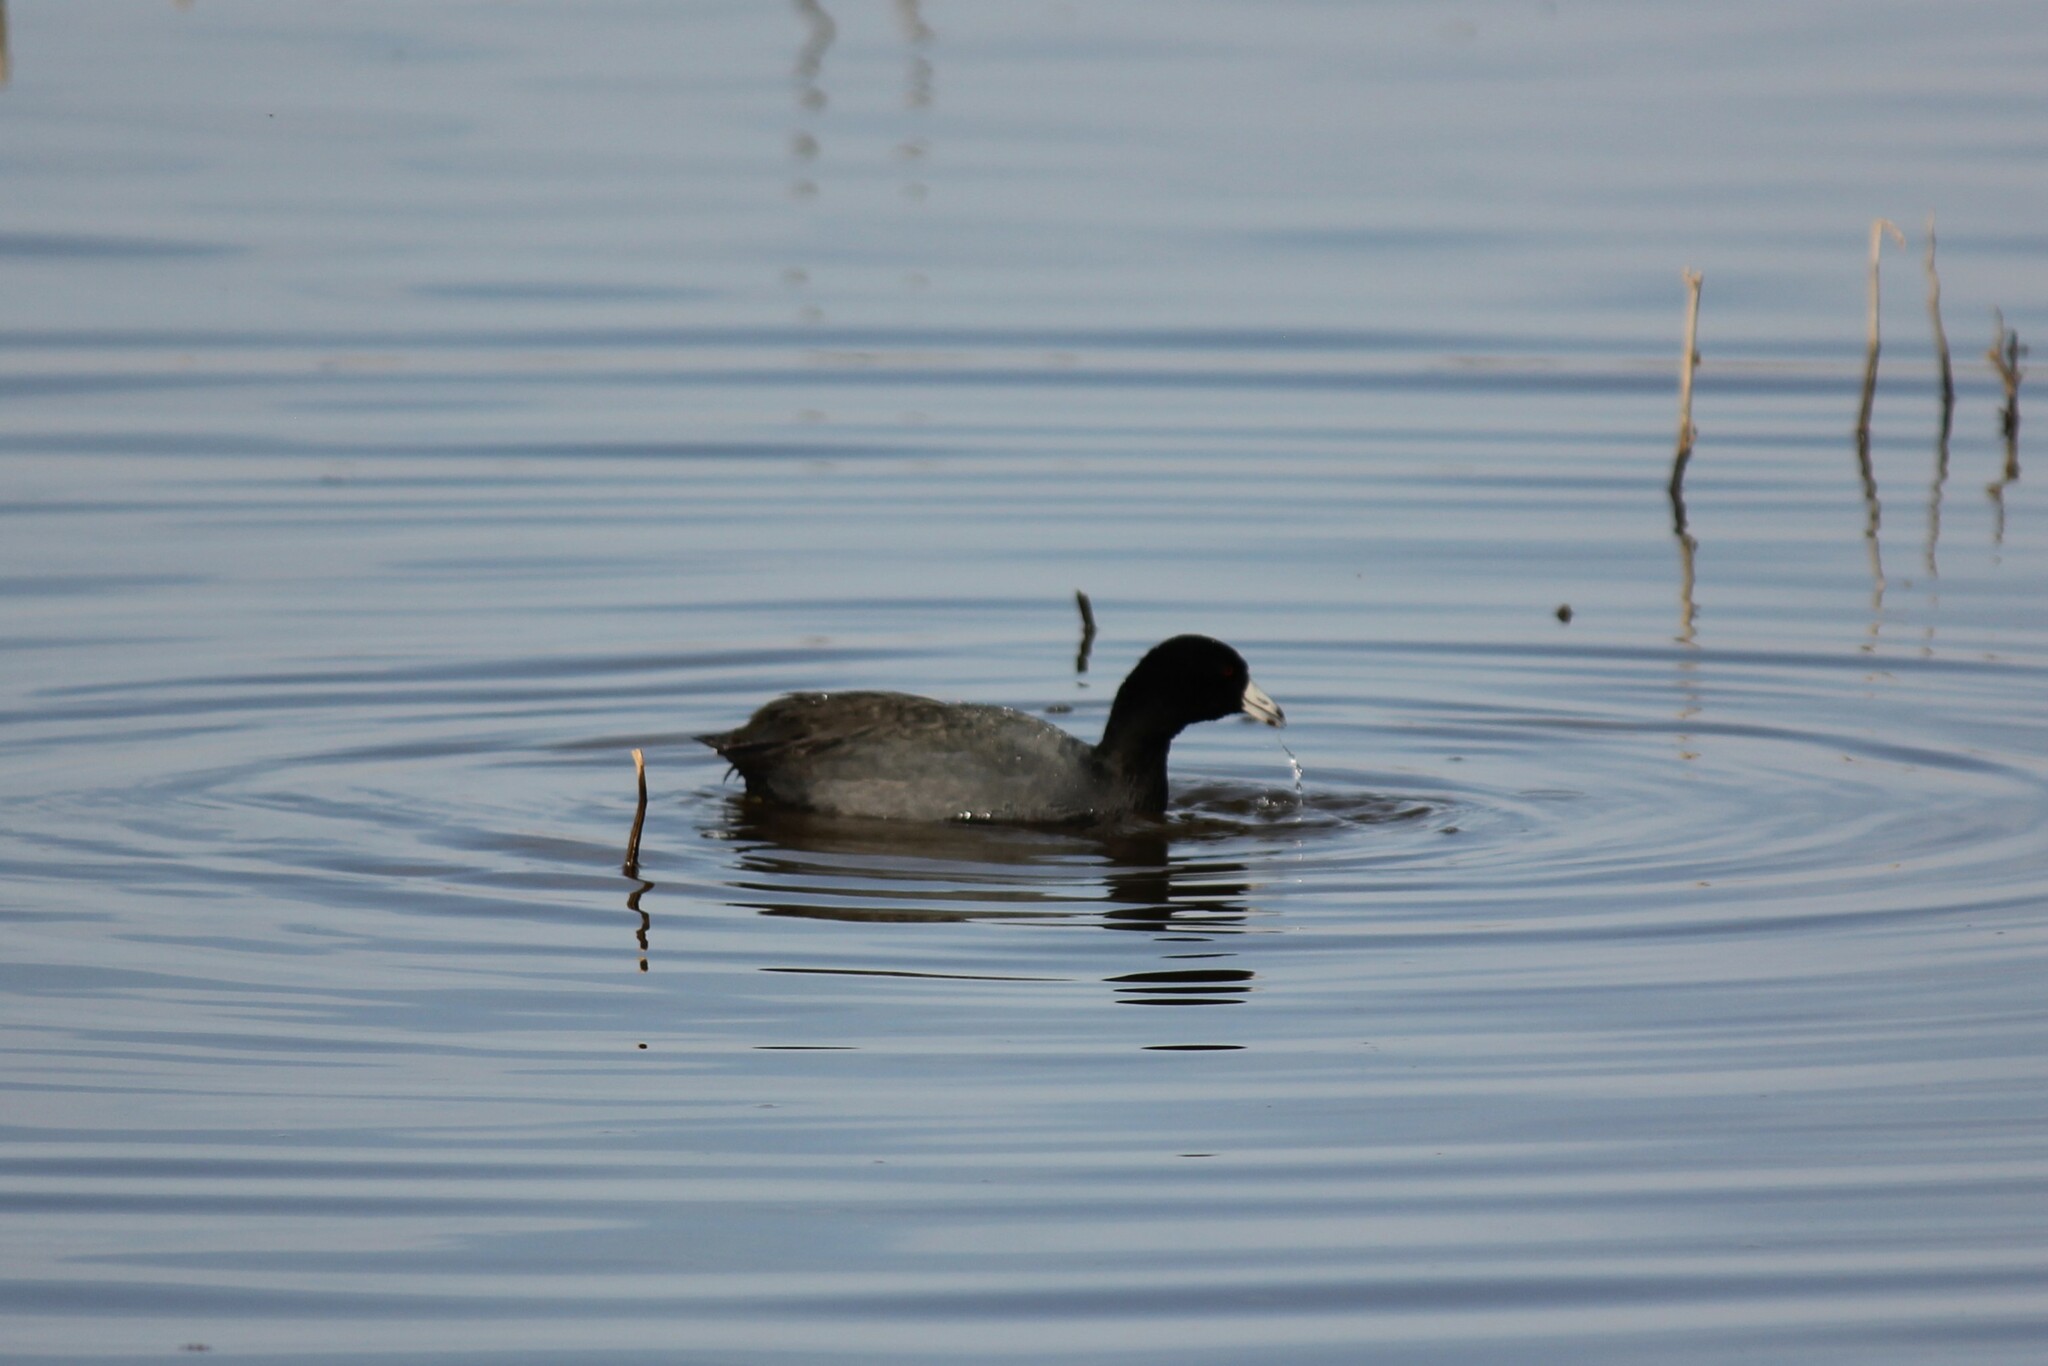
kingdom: Animalia
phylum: Chordata
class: Aves
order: Gruiformes
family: Rallidae
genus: Fulica
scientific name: Fulica americana
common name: American coot
